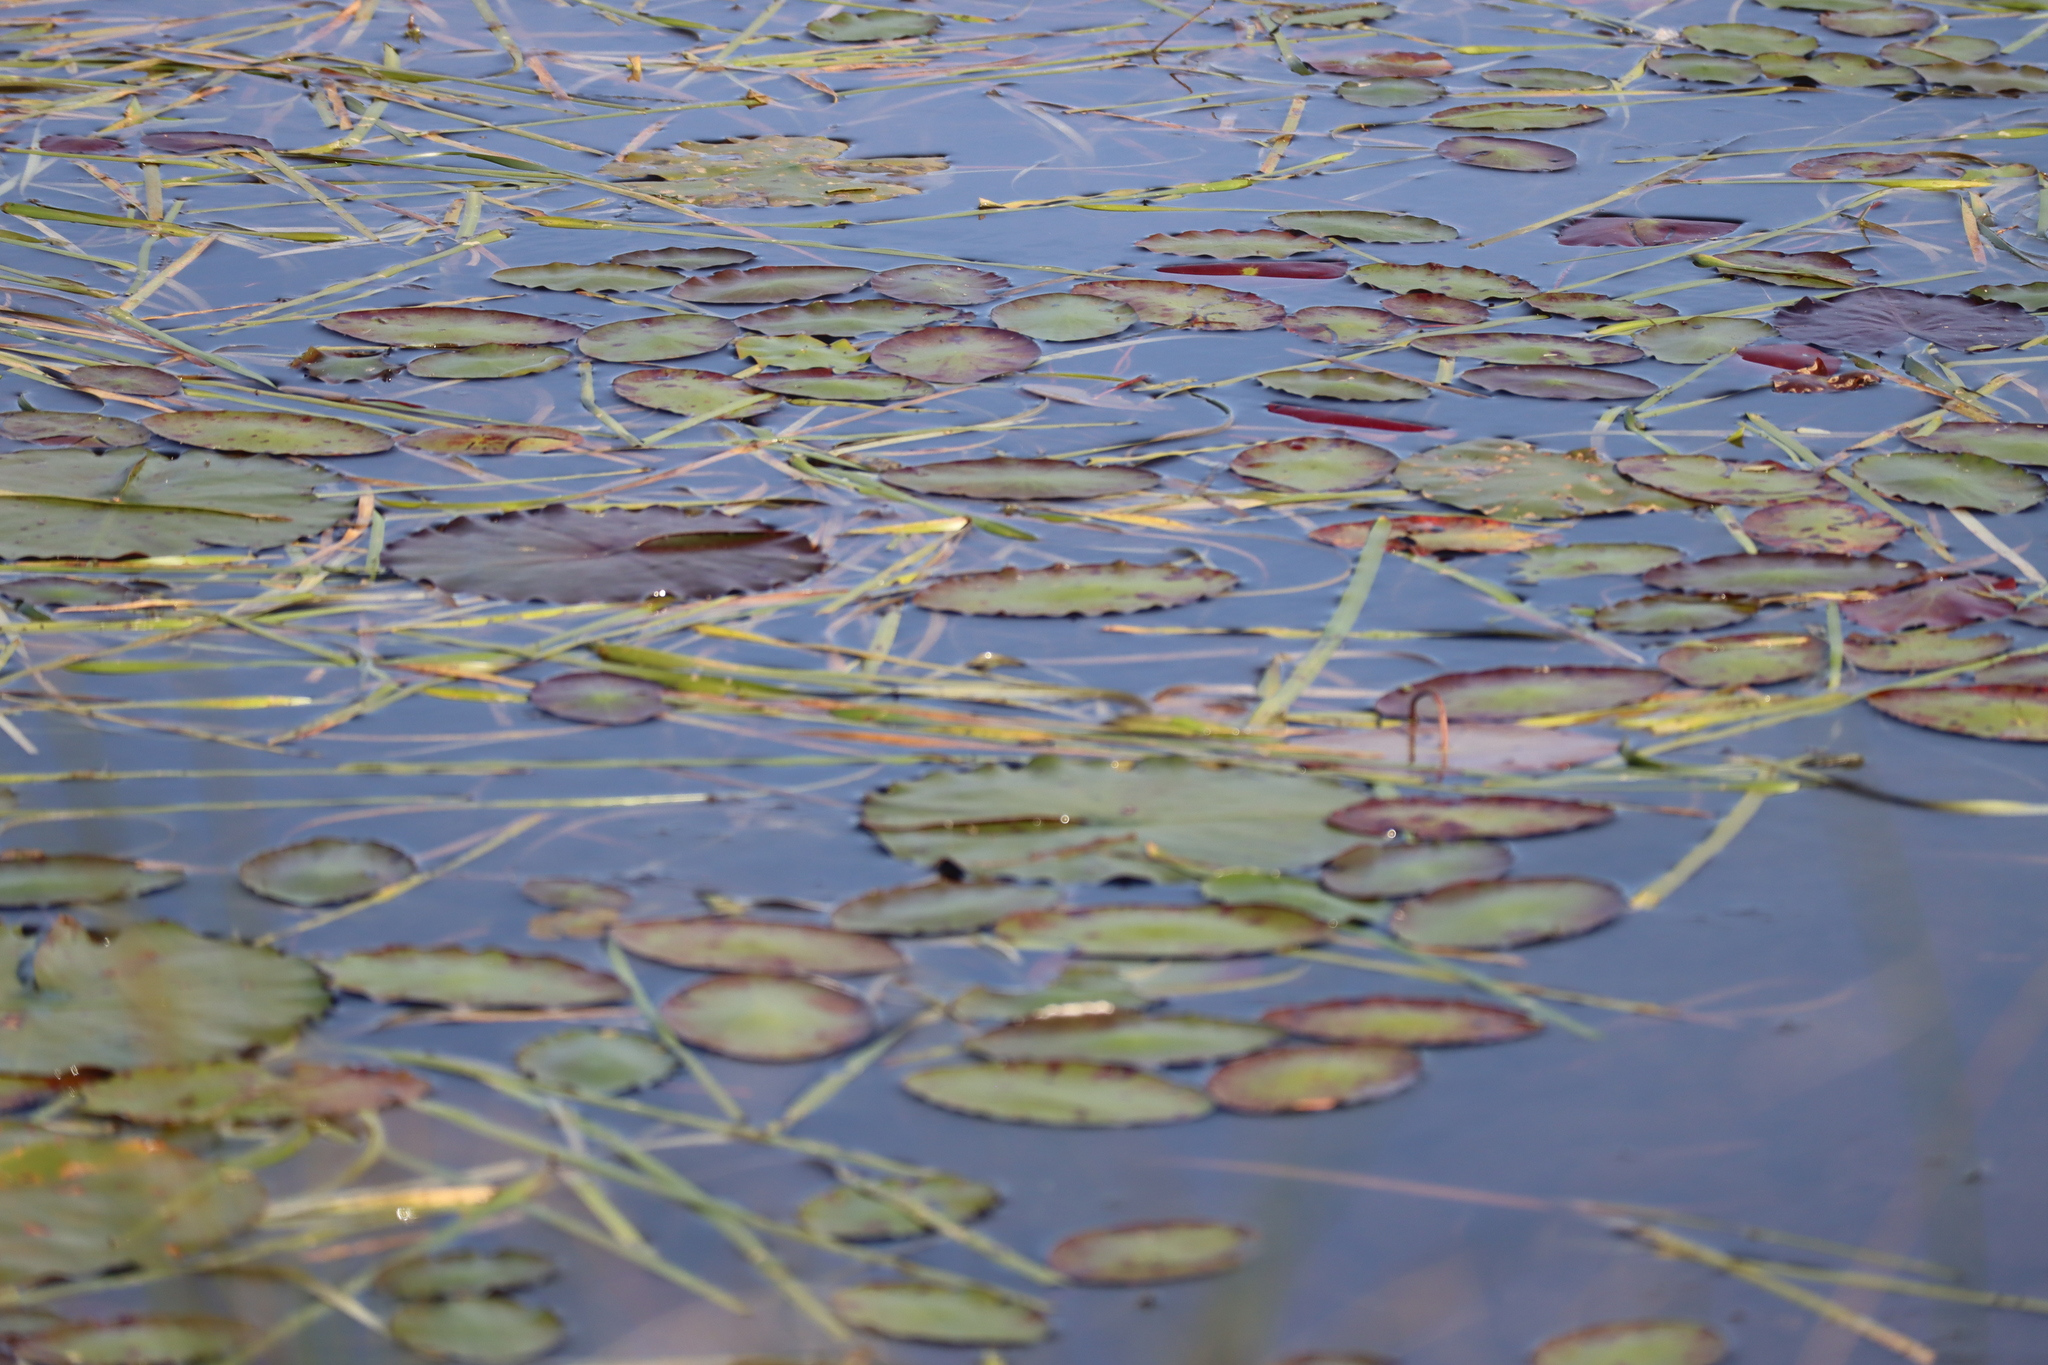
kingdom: Plantae
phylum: Tracheophyta
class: Magnoliopsida
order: Nymphaeales
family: Cabombaceae
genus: Brasenia
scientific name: Brasenia schreberi
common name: Water-shield
